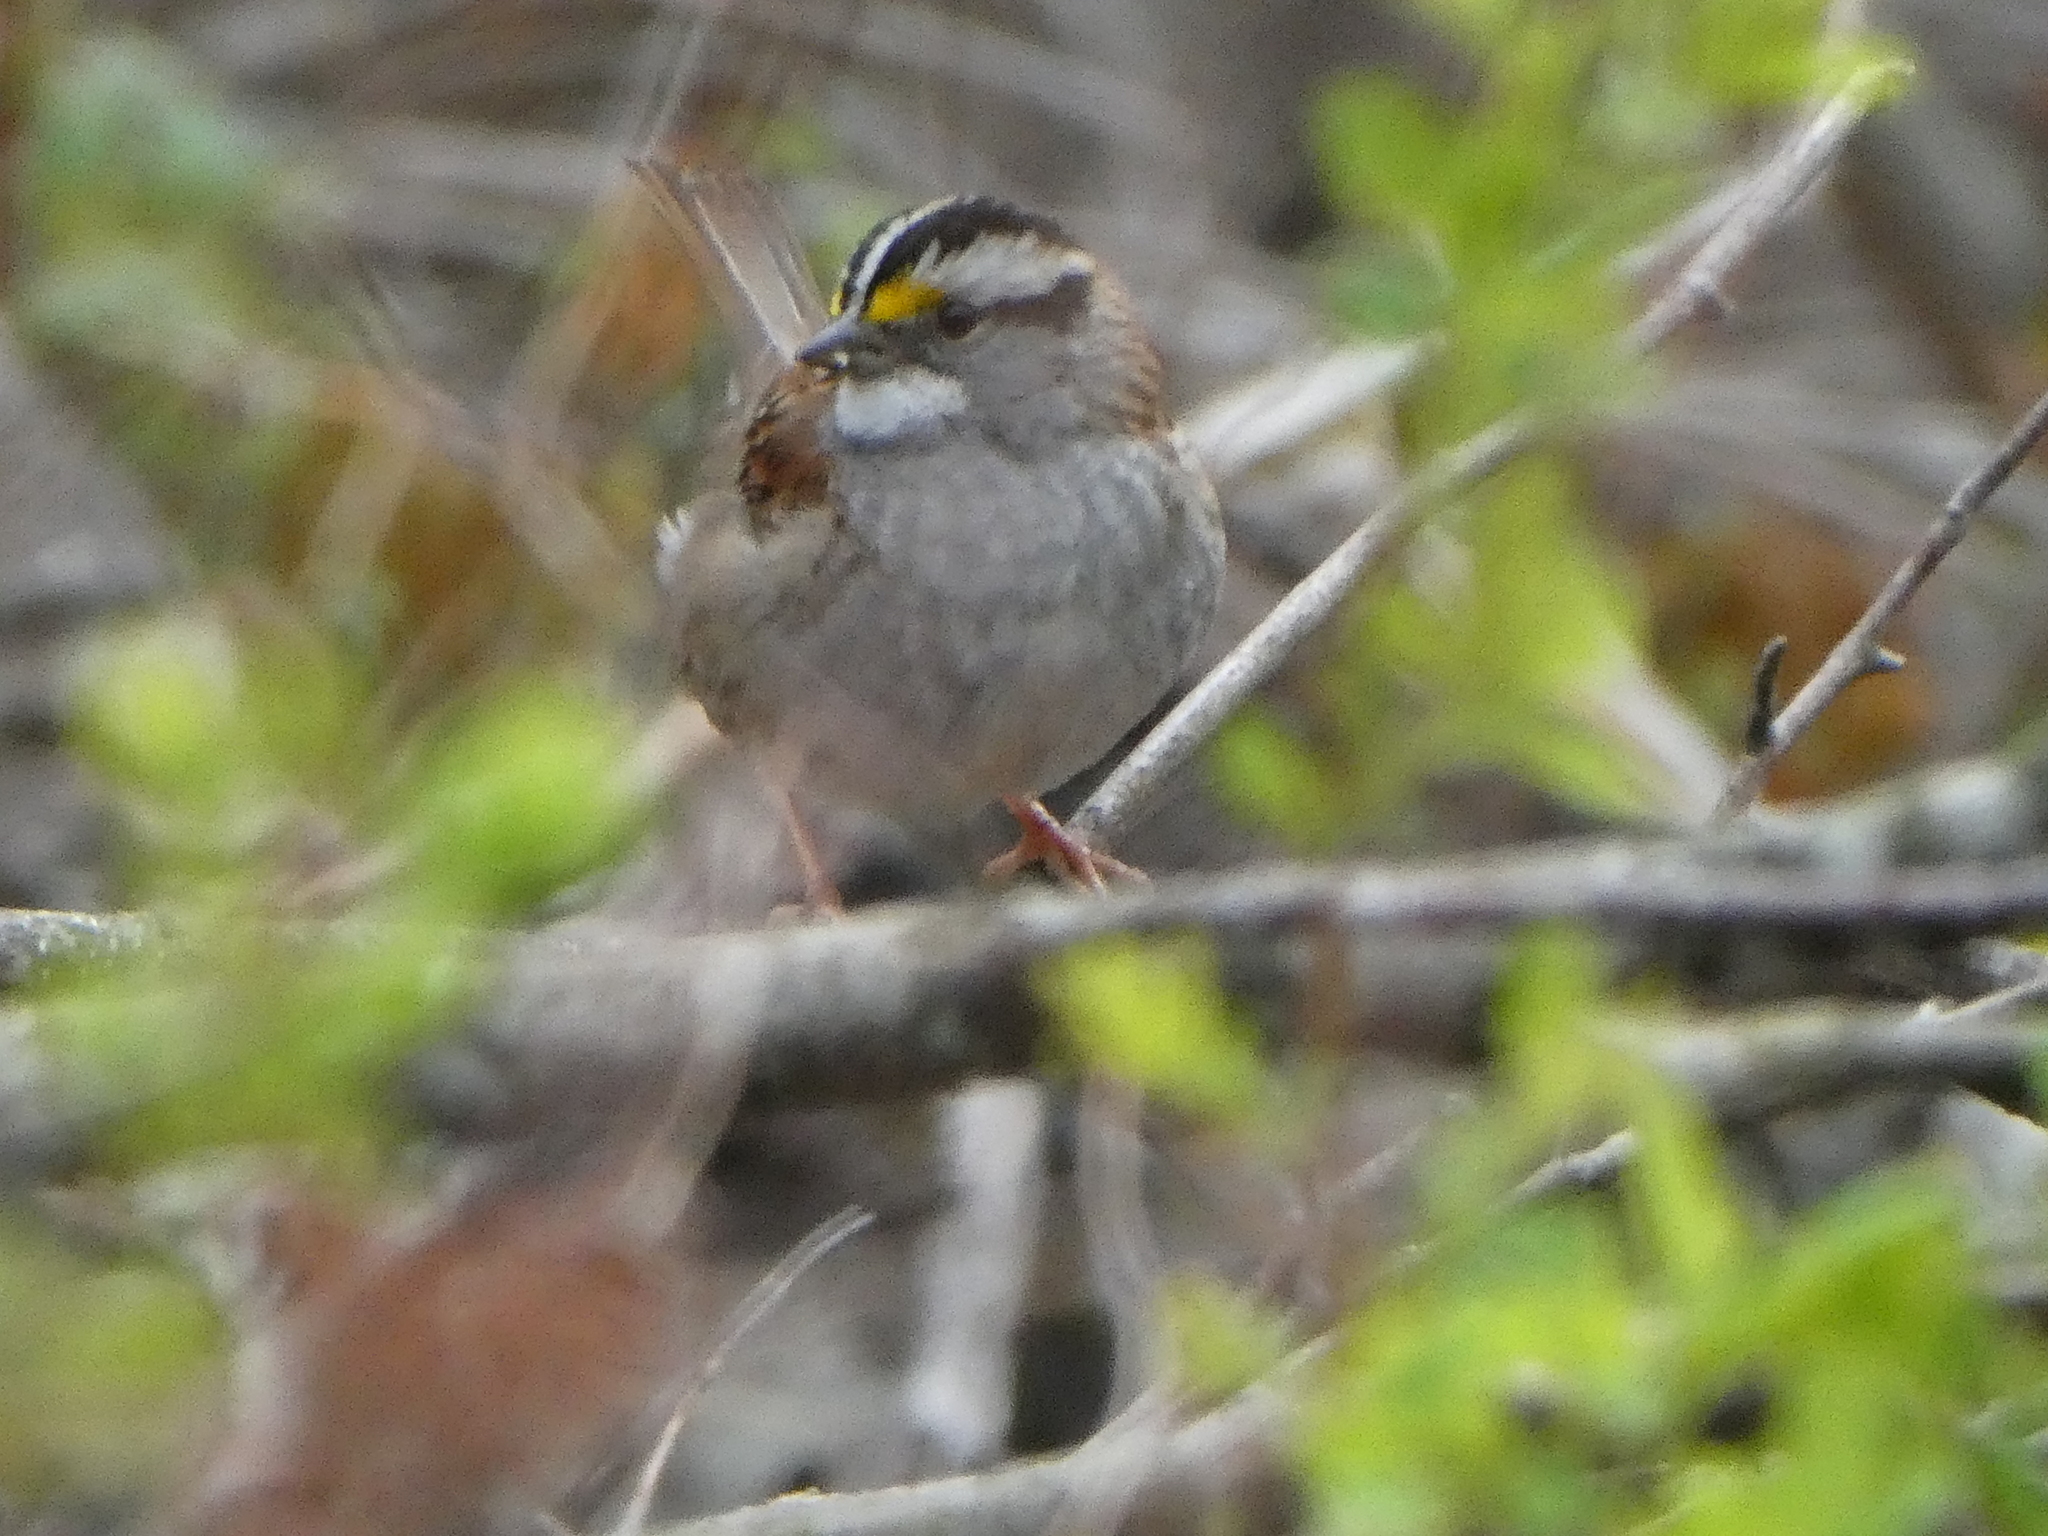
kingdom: Animalia
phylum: Chordata
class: Aves
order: Passeriformes
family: Passerellidae
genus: Zonotrichia
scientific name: Zonotrichia albicollis
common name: White-throated sparrow
